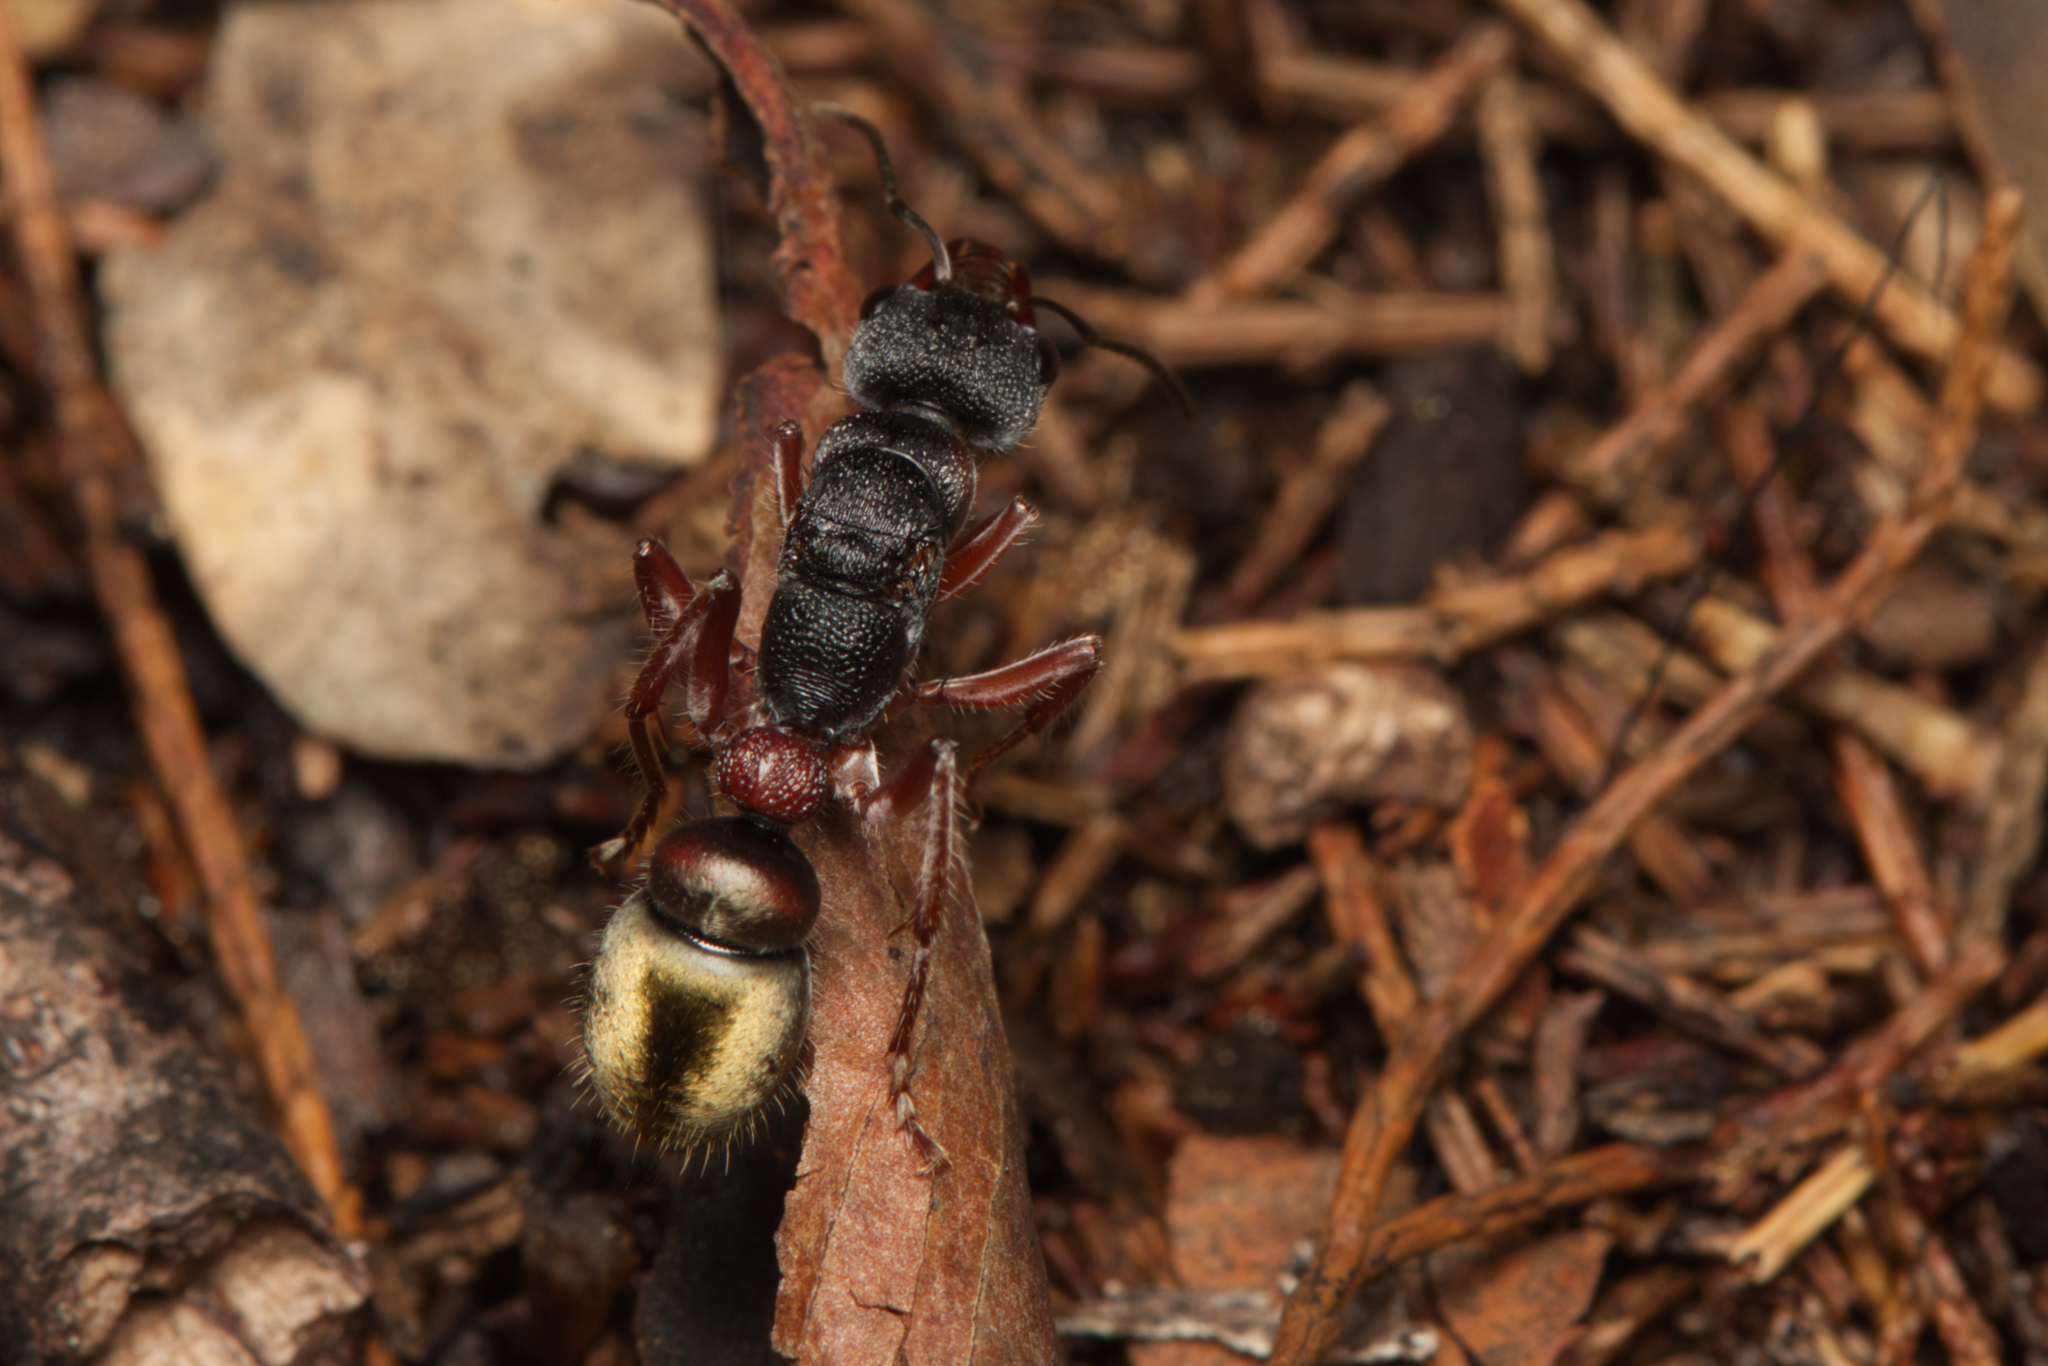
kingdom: Animalia
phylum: Arthropoda
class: Insecta
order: Hymenoptera
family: Formicidae
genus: Myrmecia
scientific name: Myrmecia chrysogaster
